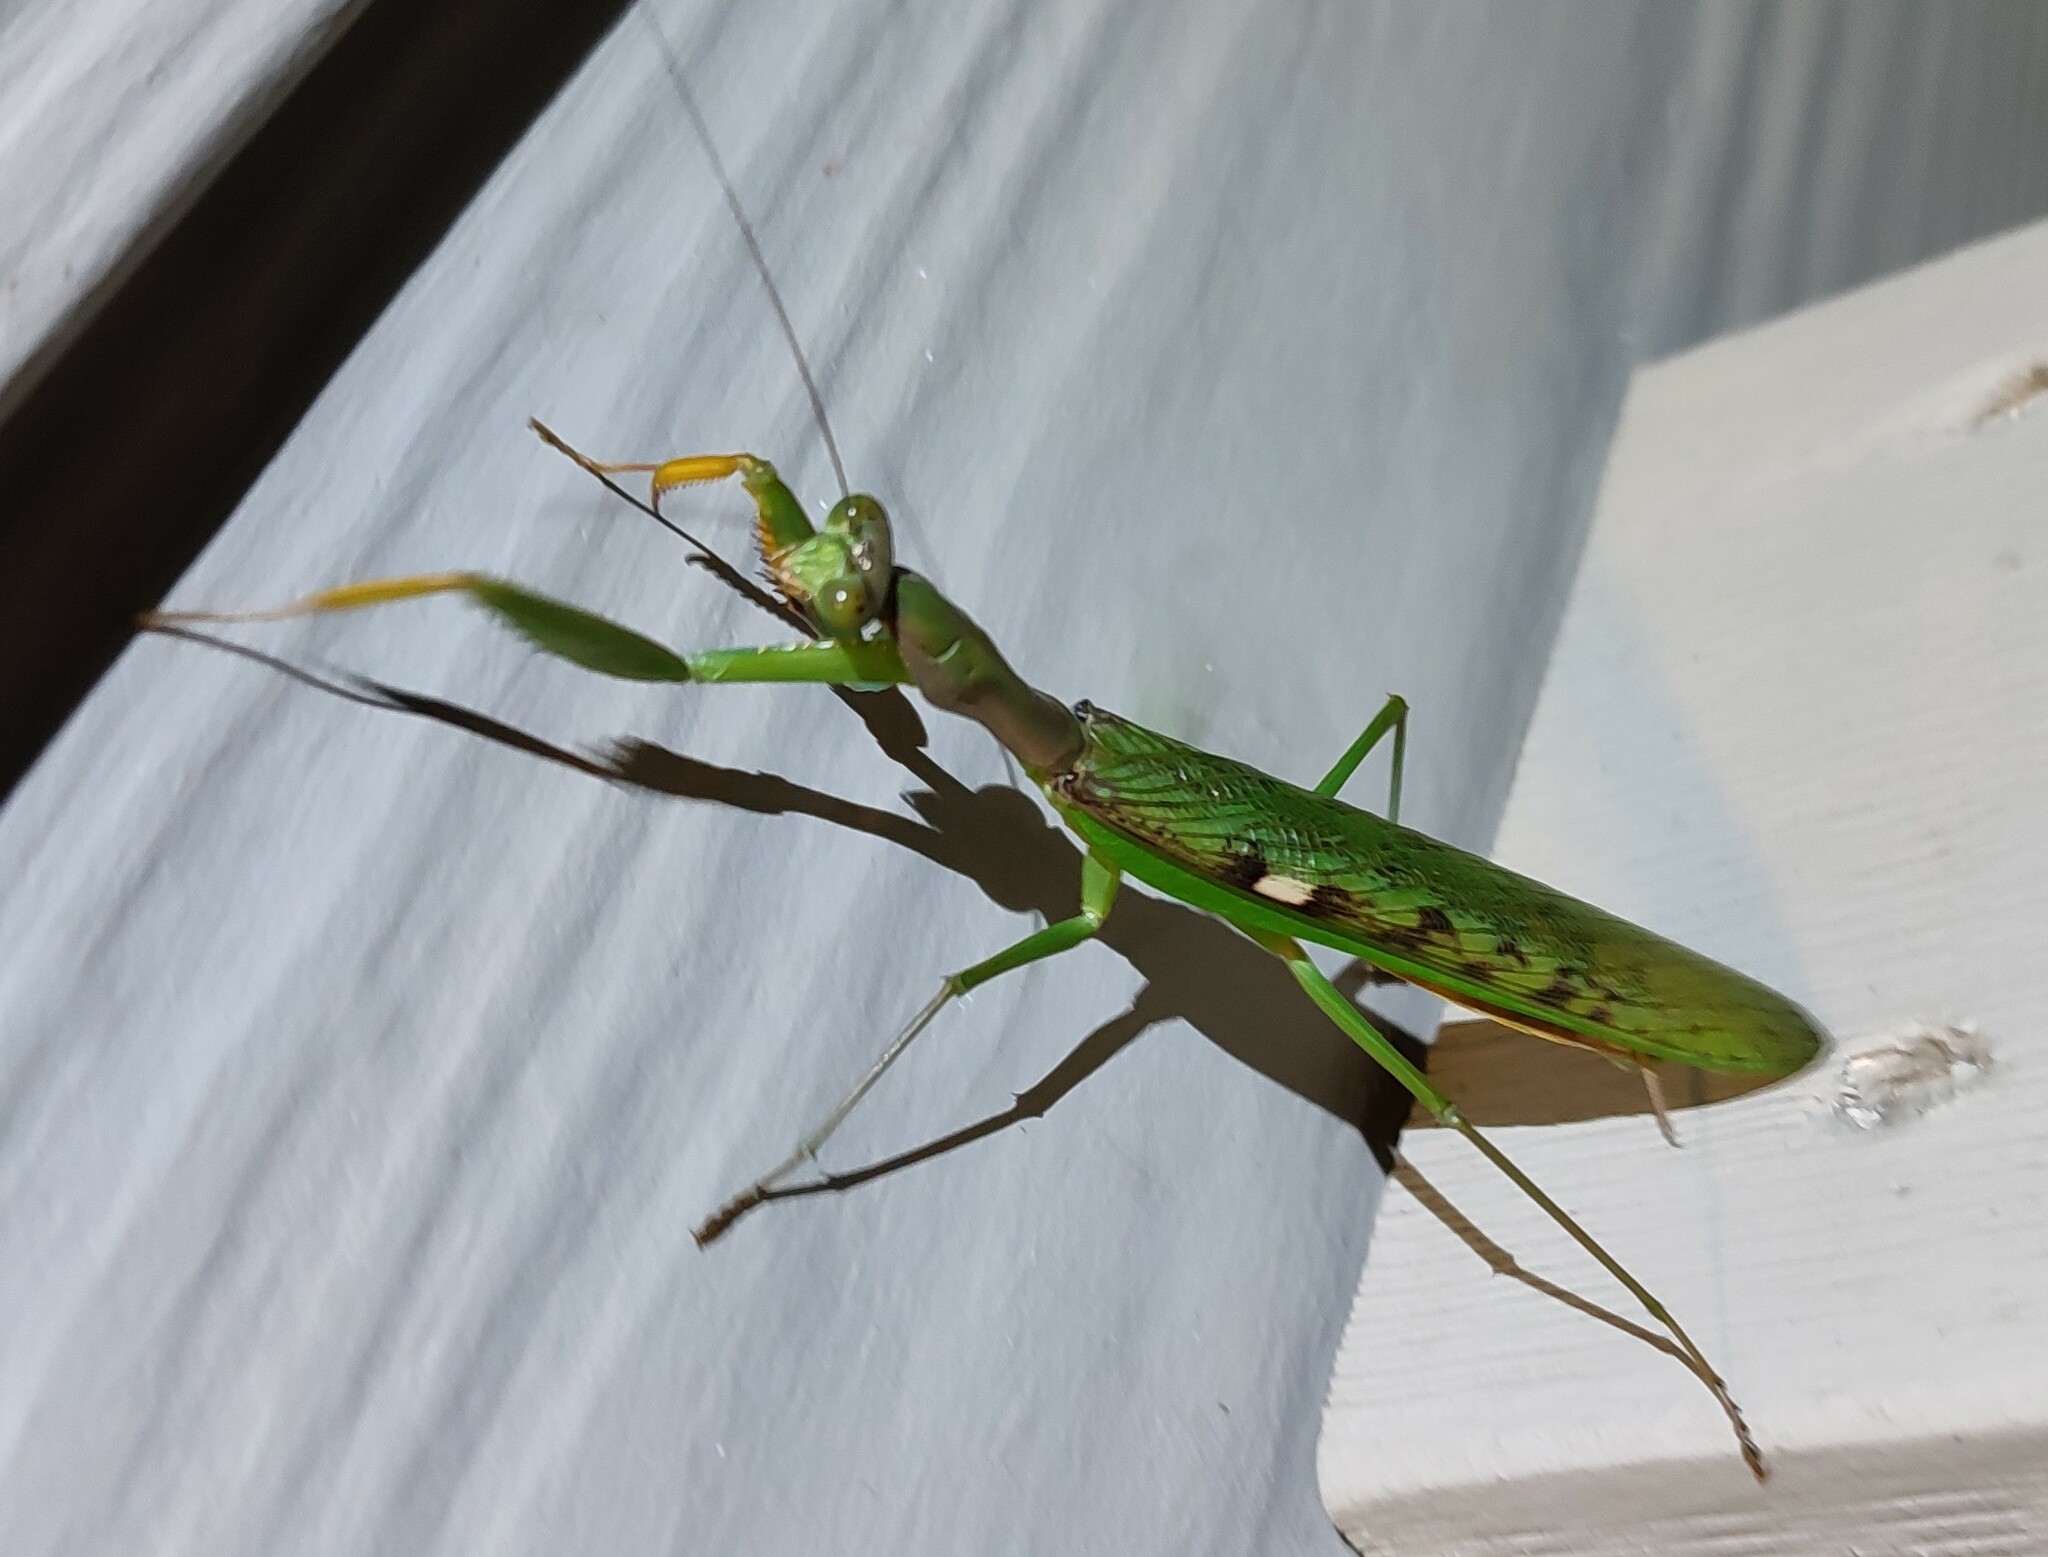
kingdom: Animalia
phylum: Arthropoda
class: Insecta
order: Mantodea
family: Mantidae
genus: Polyspilota
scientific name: Polyspilota aeruginosa
